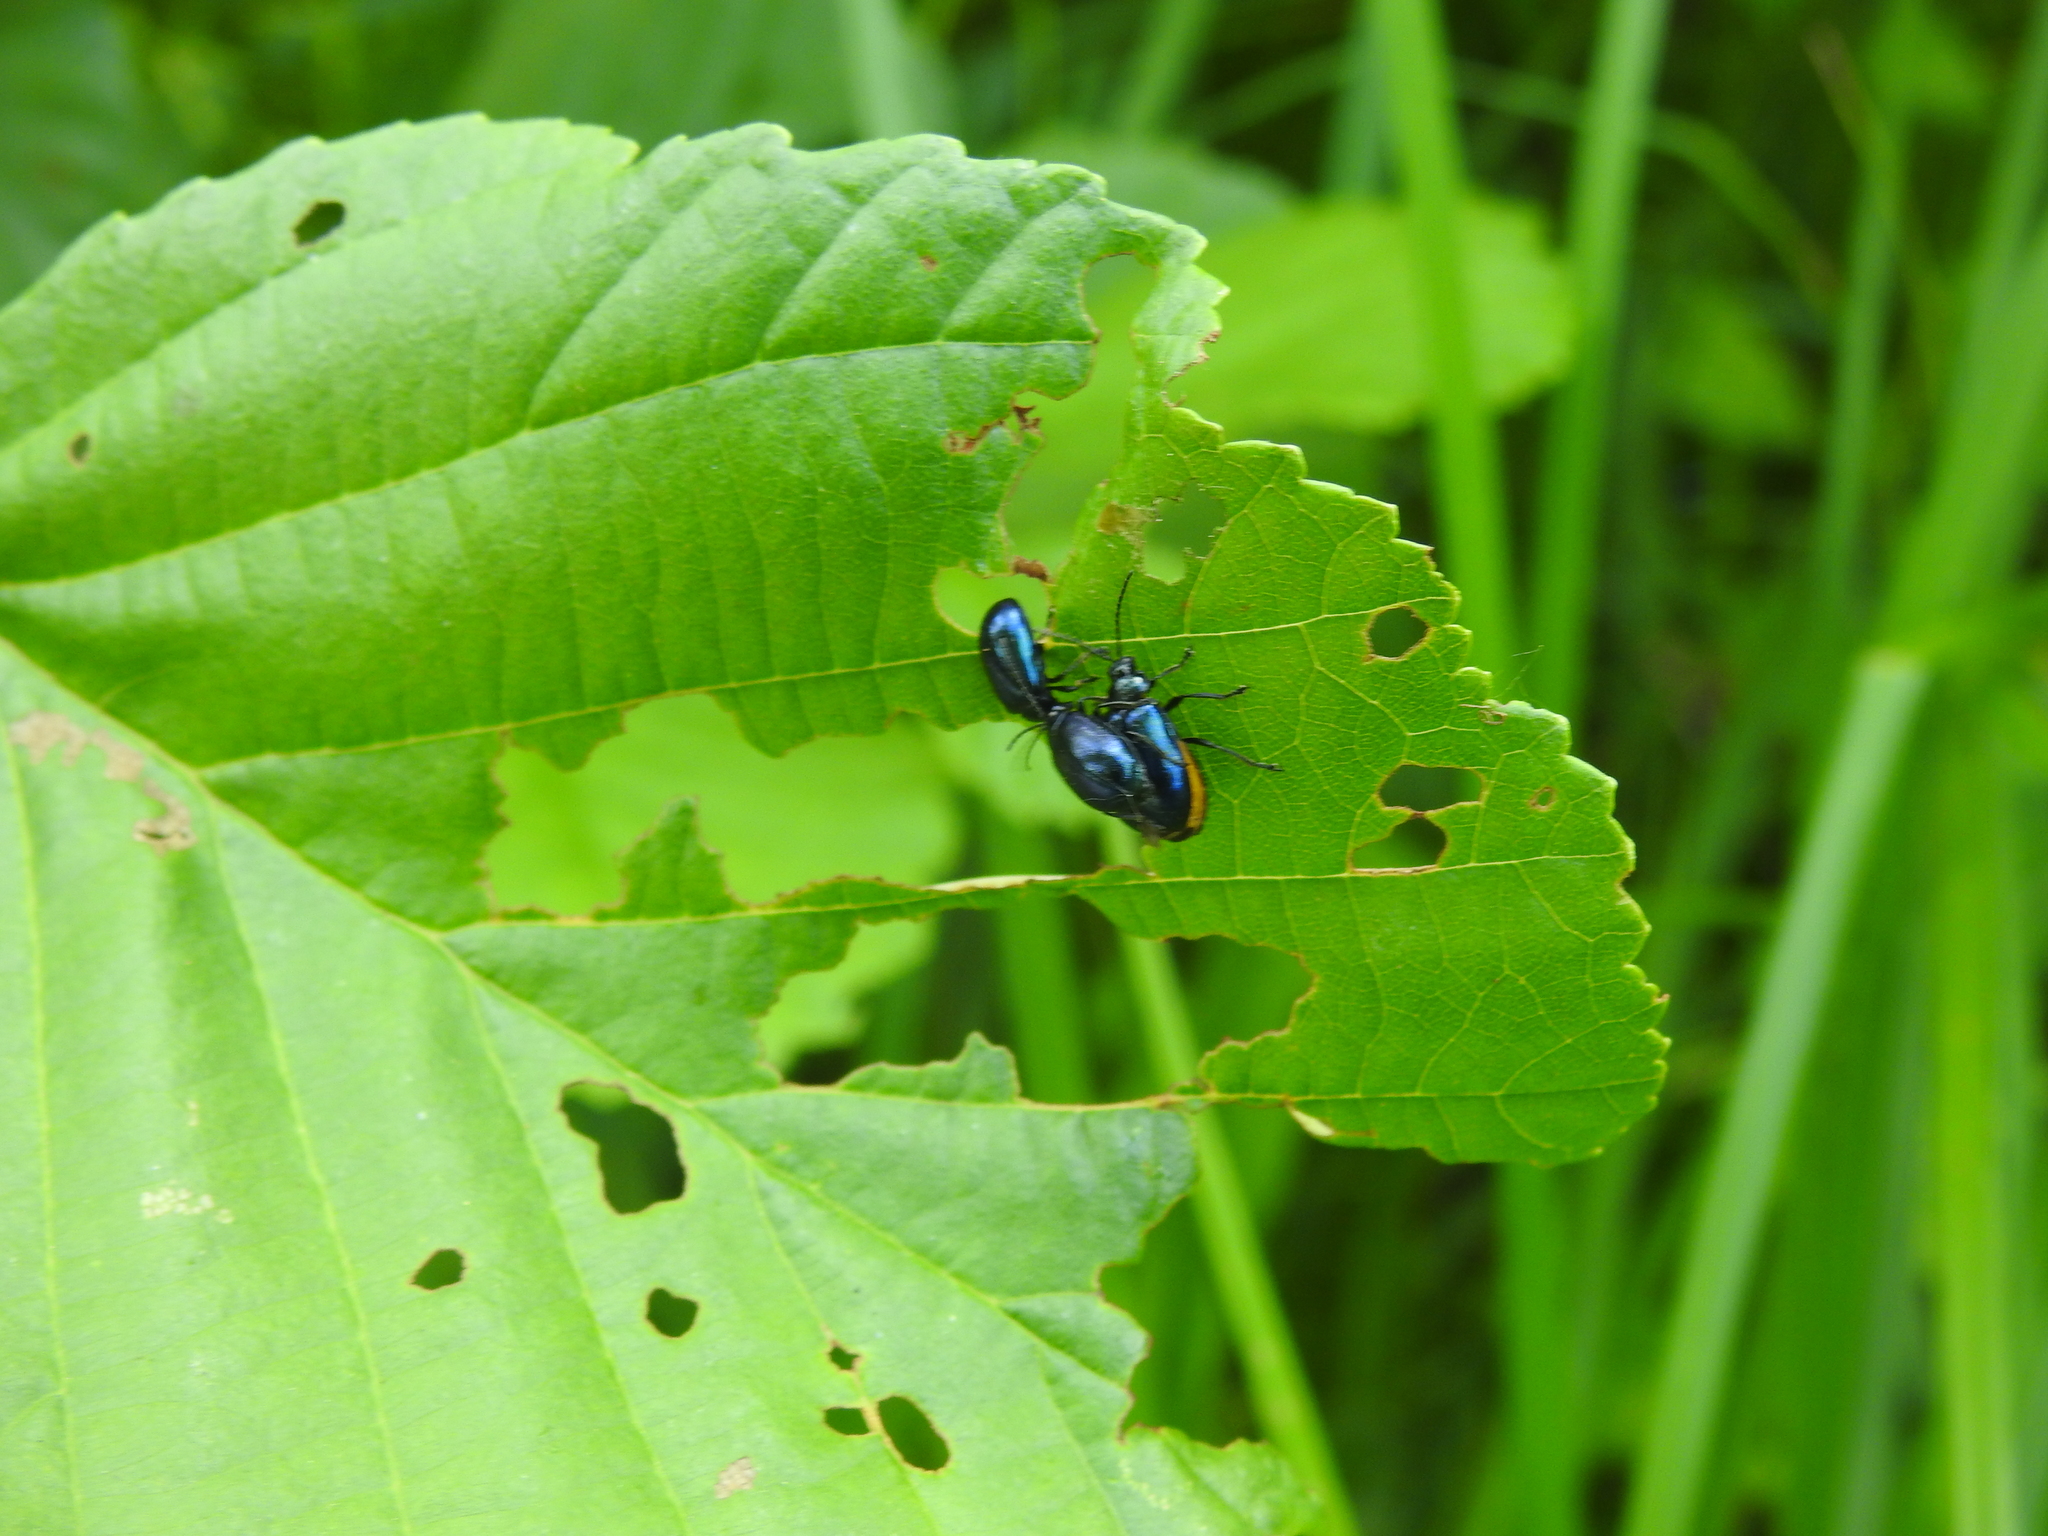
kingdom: Animalia
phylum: Arthropoda
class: Insecta
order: Coleoptera
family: Chrysomelidae
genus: Agelastica
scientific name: Agelastica alni
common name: Alder leaf beetle
